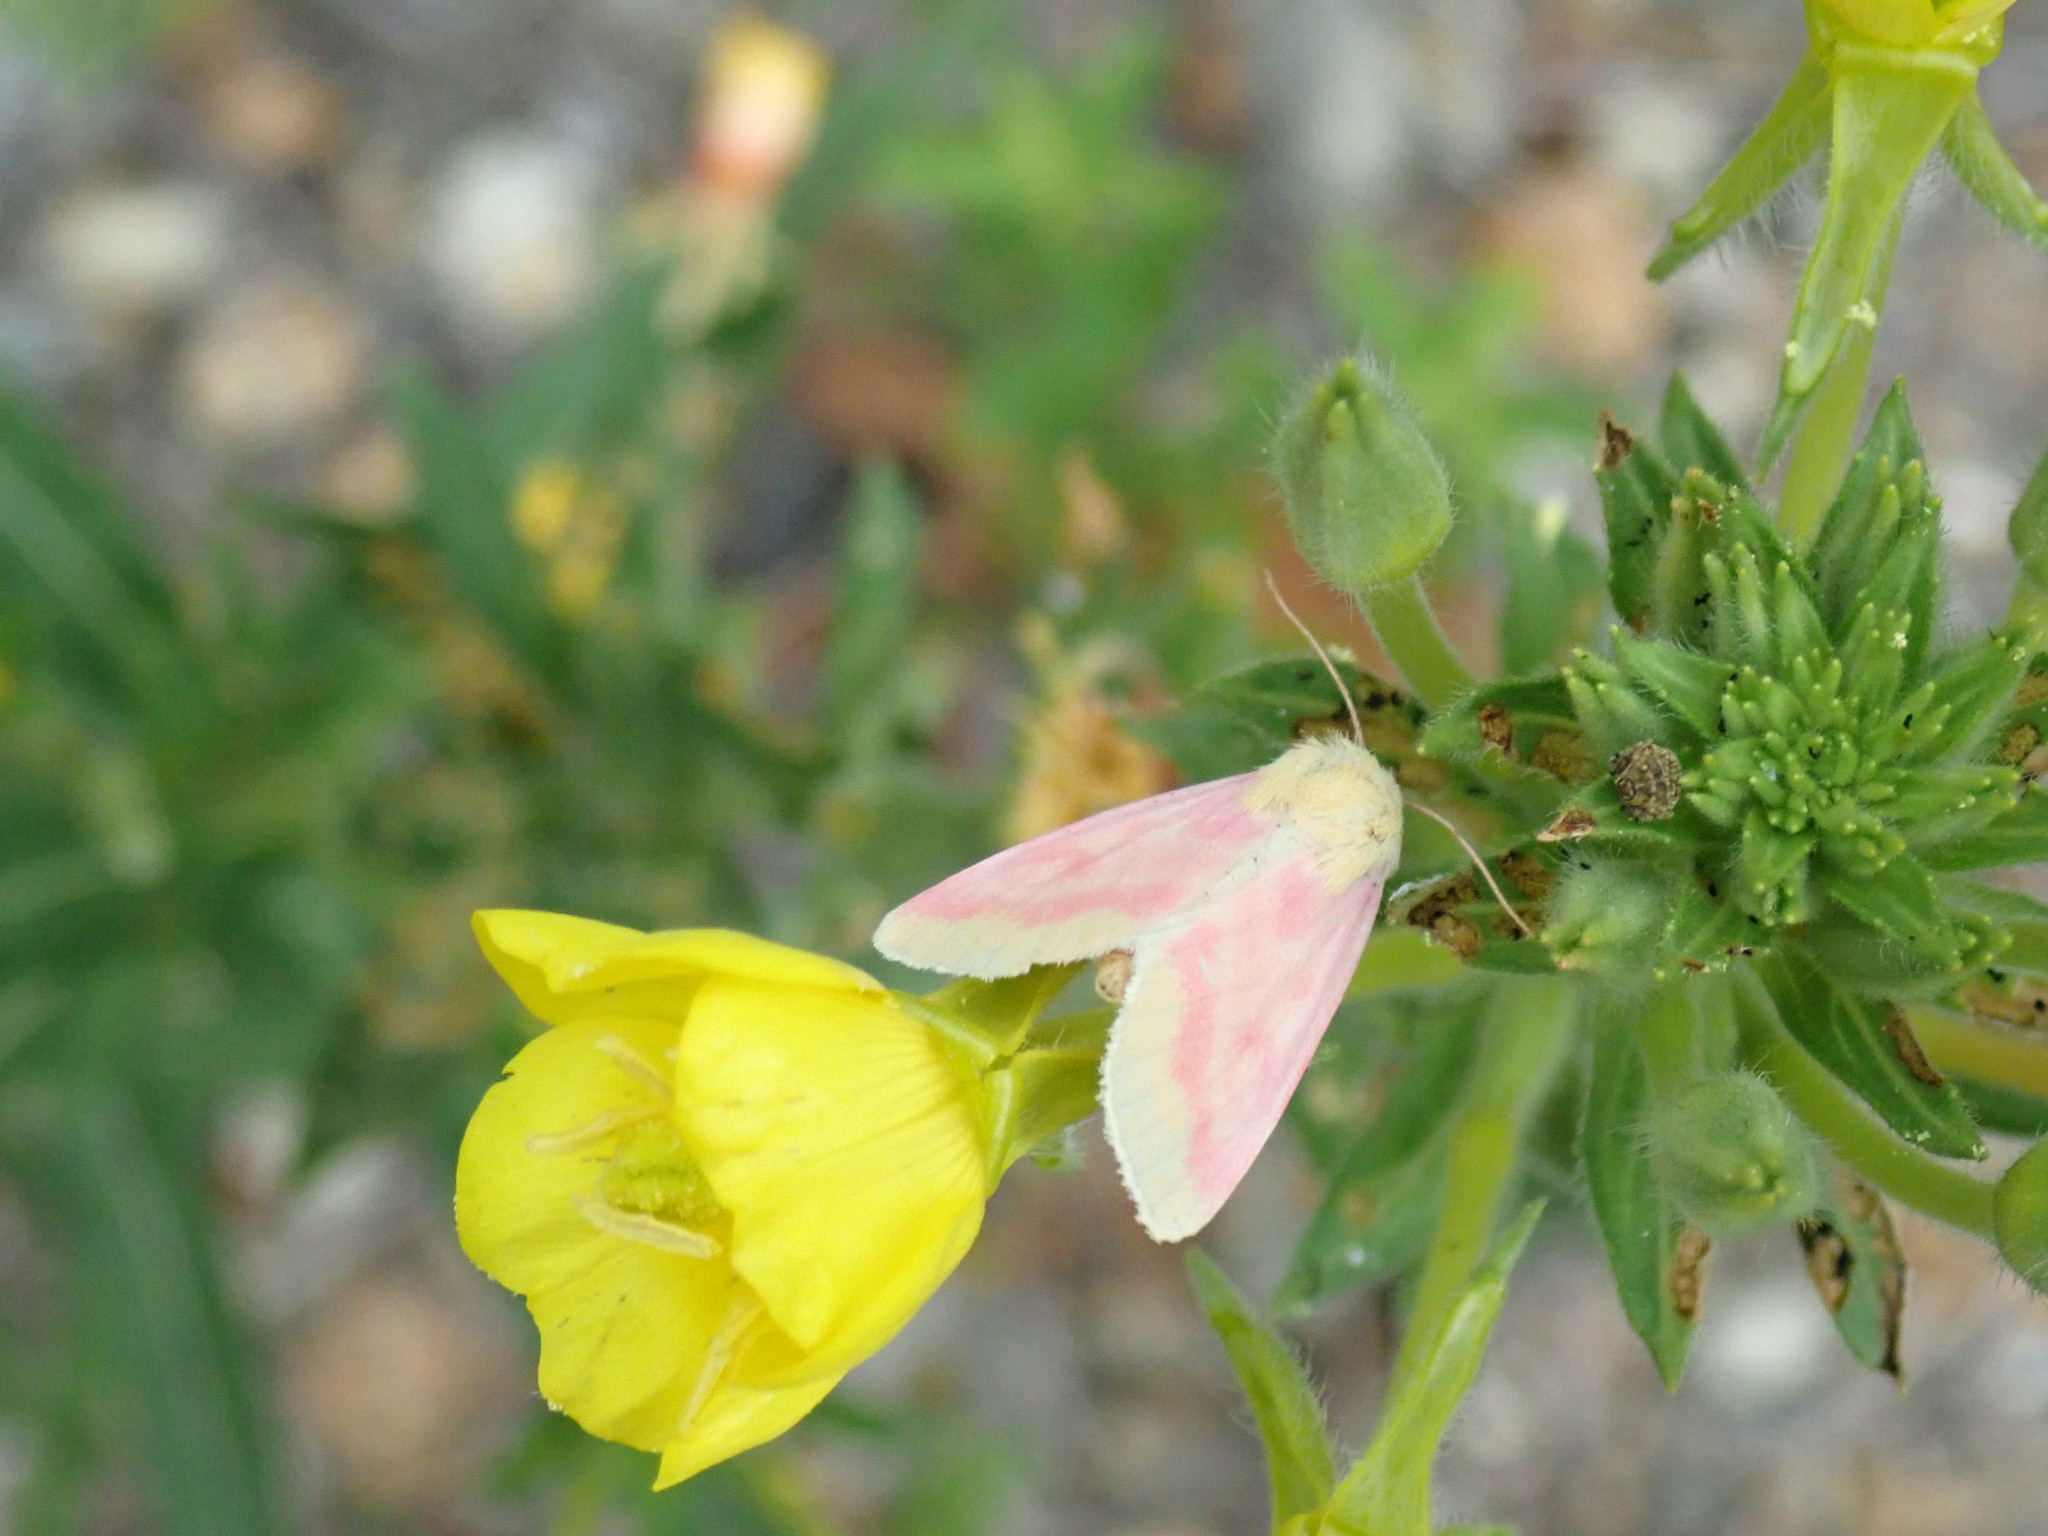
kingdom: Animalia
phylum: Arthropoda
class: Insecta
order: Lepidoptera
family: Noctuidae
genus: Schinia
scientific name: Schinia florida
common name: Primrose moth
